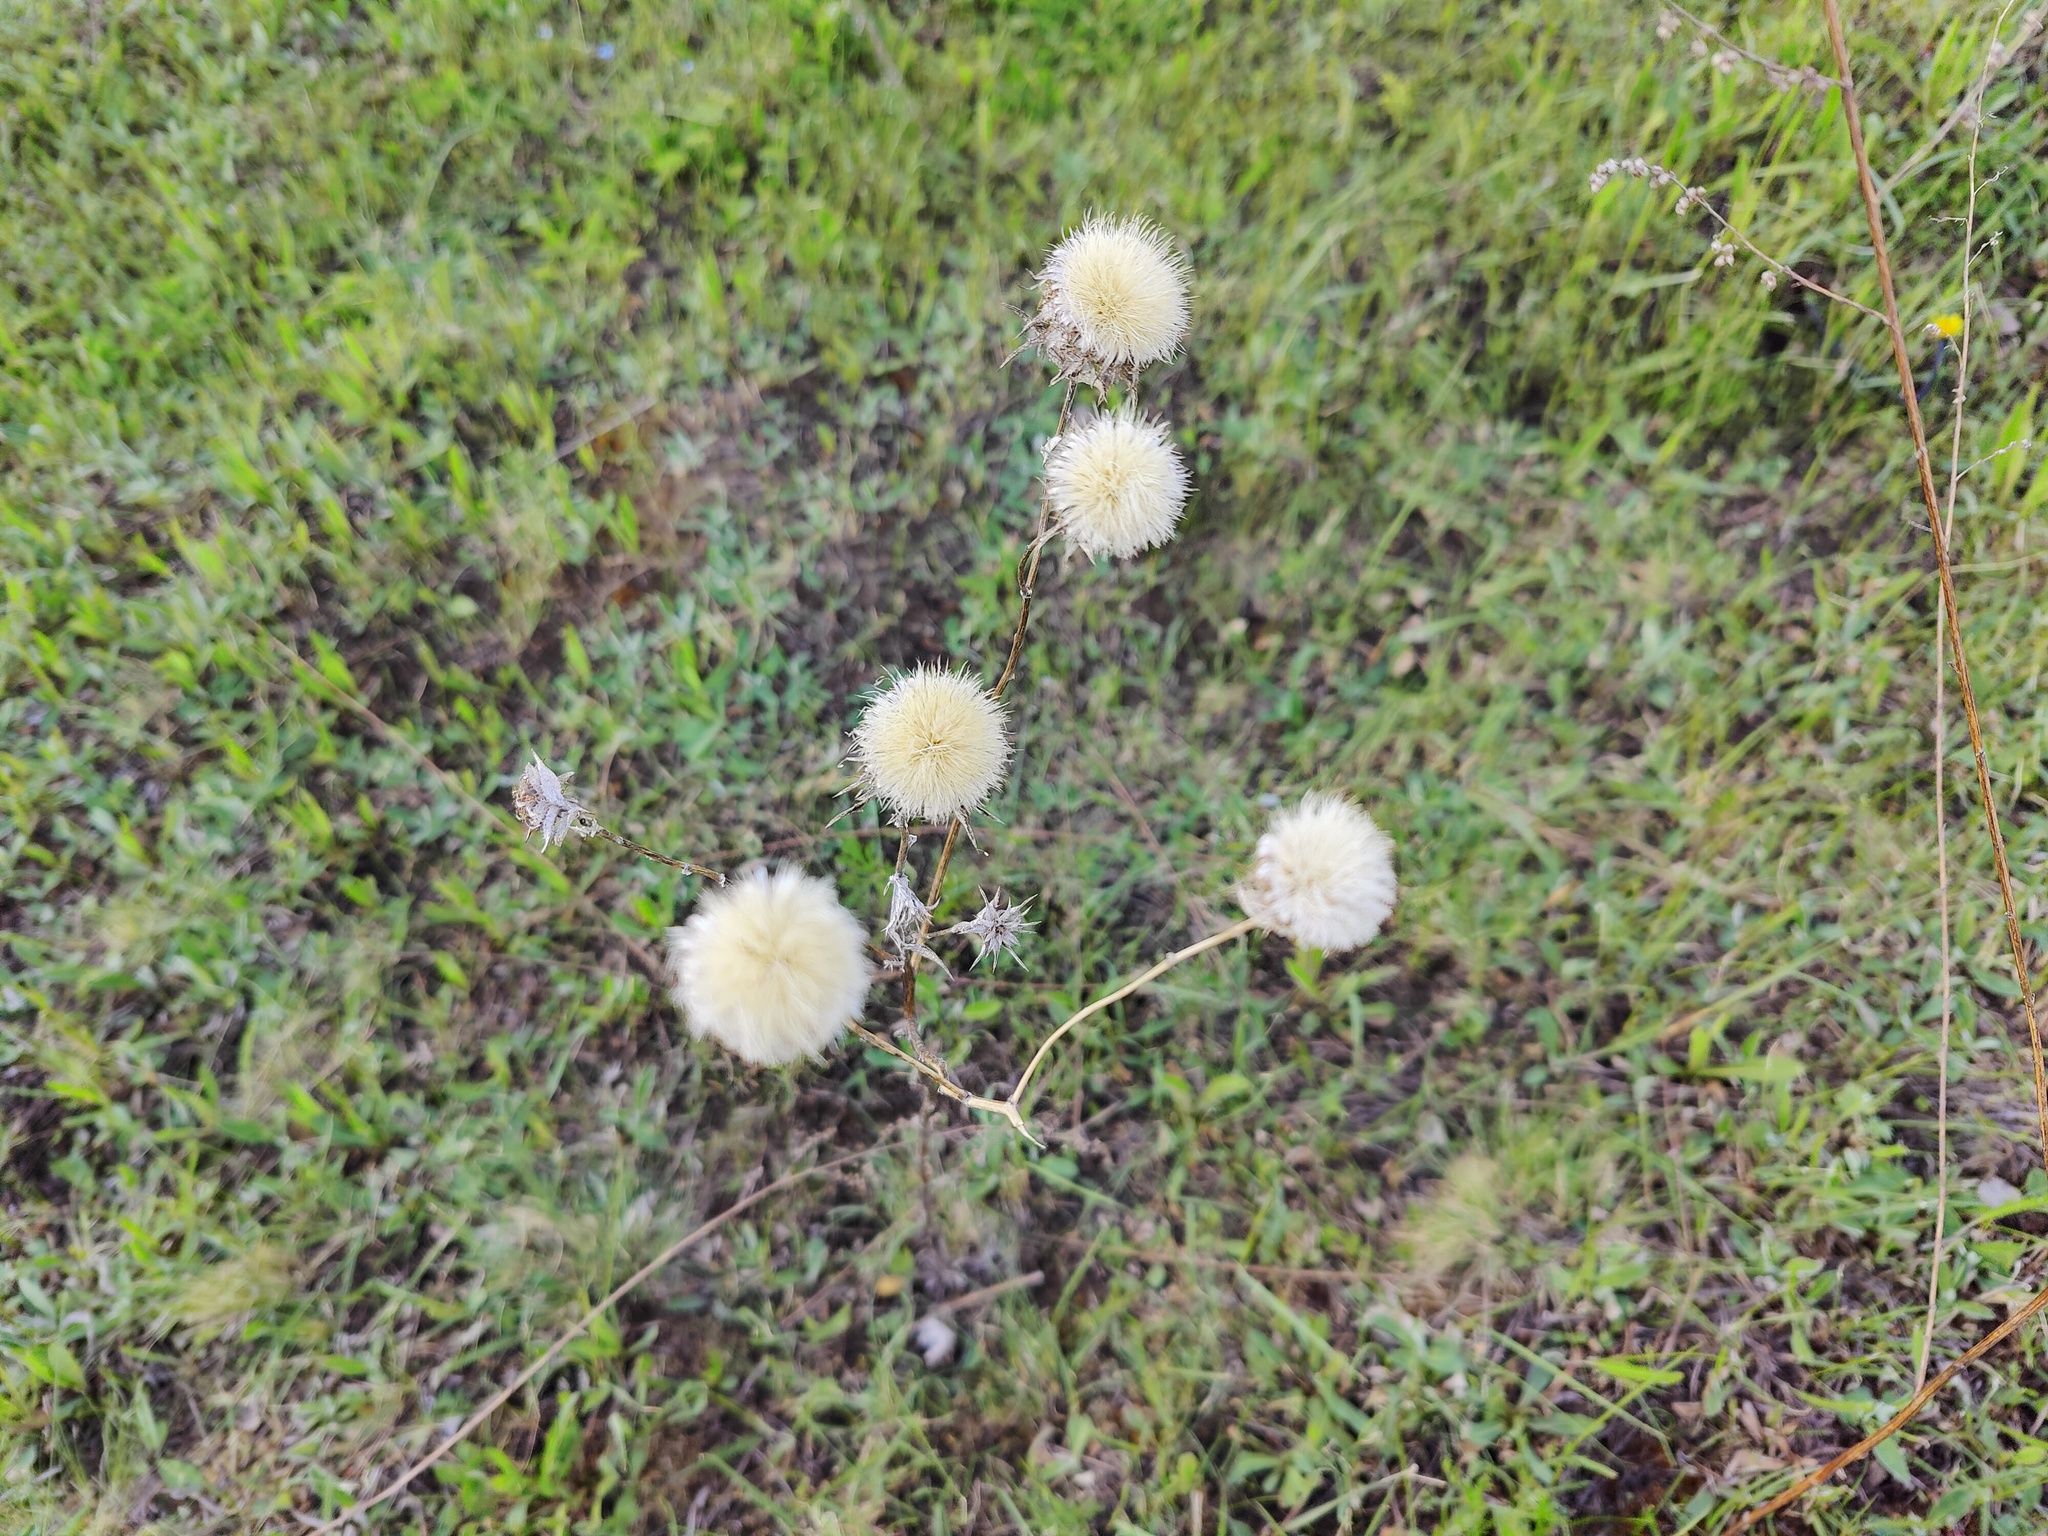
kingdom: Plantae
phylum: Tracheophyta
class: Magnoliopsida
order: Asterales
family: Asteraceae
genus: Carlina
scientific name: Carlina biebersteinii
